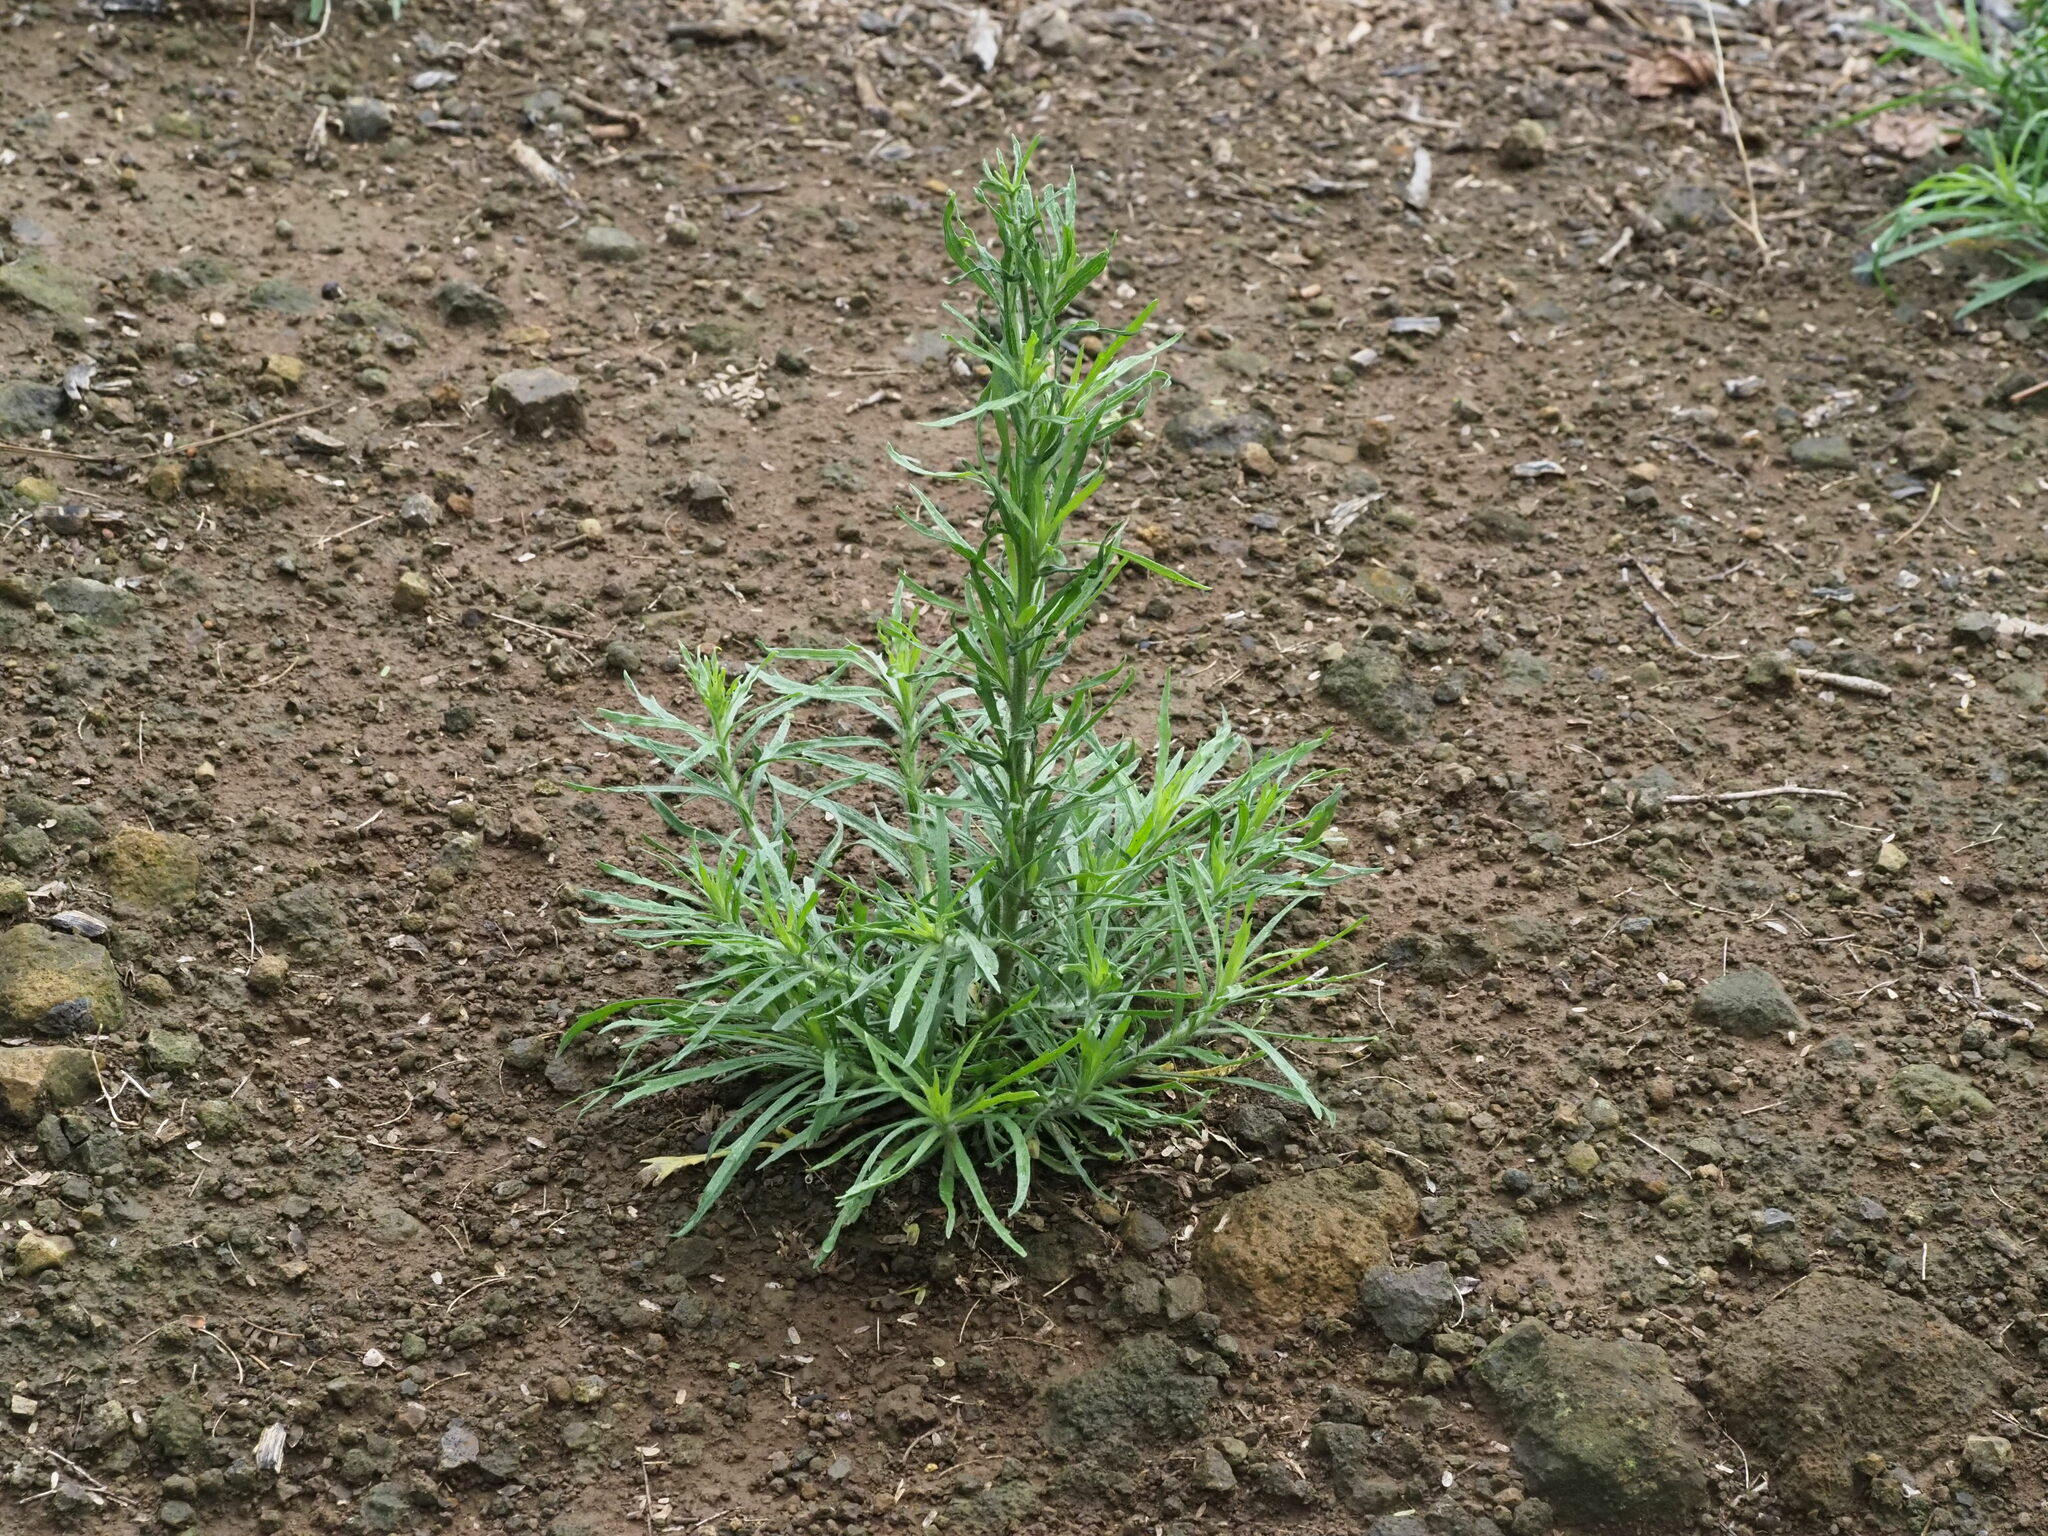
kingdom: Plantae
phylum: Tracheophyta
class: Magnoliopsida
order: Asterales
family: Asteraceae
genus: Erigeron
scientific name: Erigeron bonariensis
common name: Argentine fleabane
